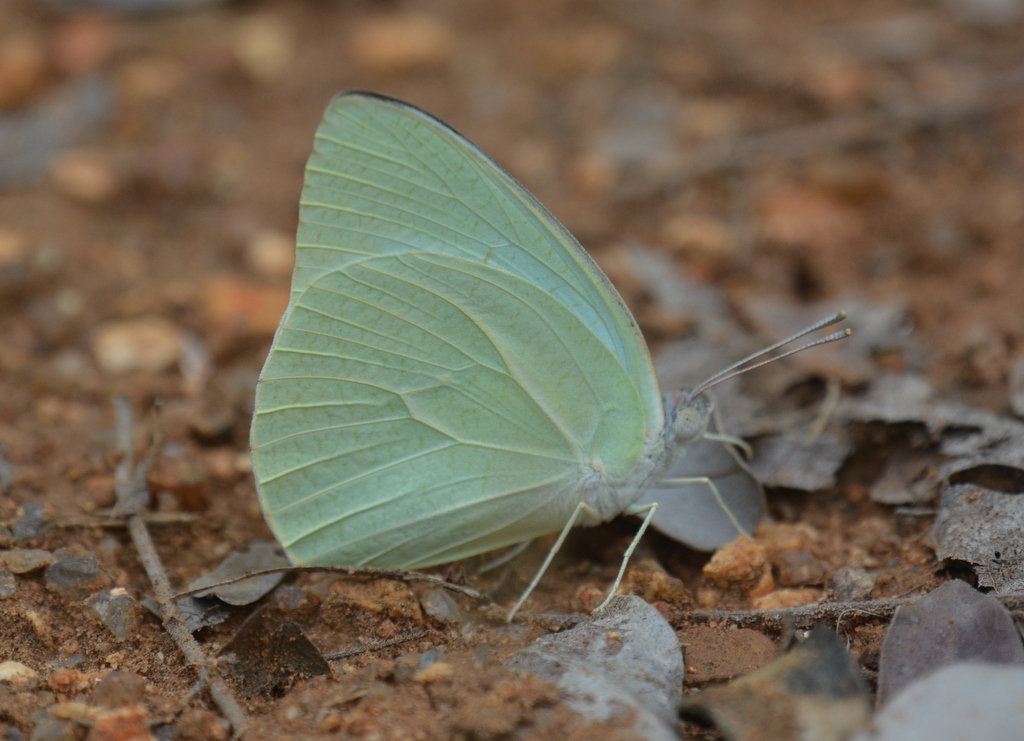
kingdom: Animalia
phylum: Arthropoda
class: Insecta
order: Lepidoptera
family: Pieridae
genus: Catopsilia
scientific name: Catopsilia florella
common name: African migrant
